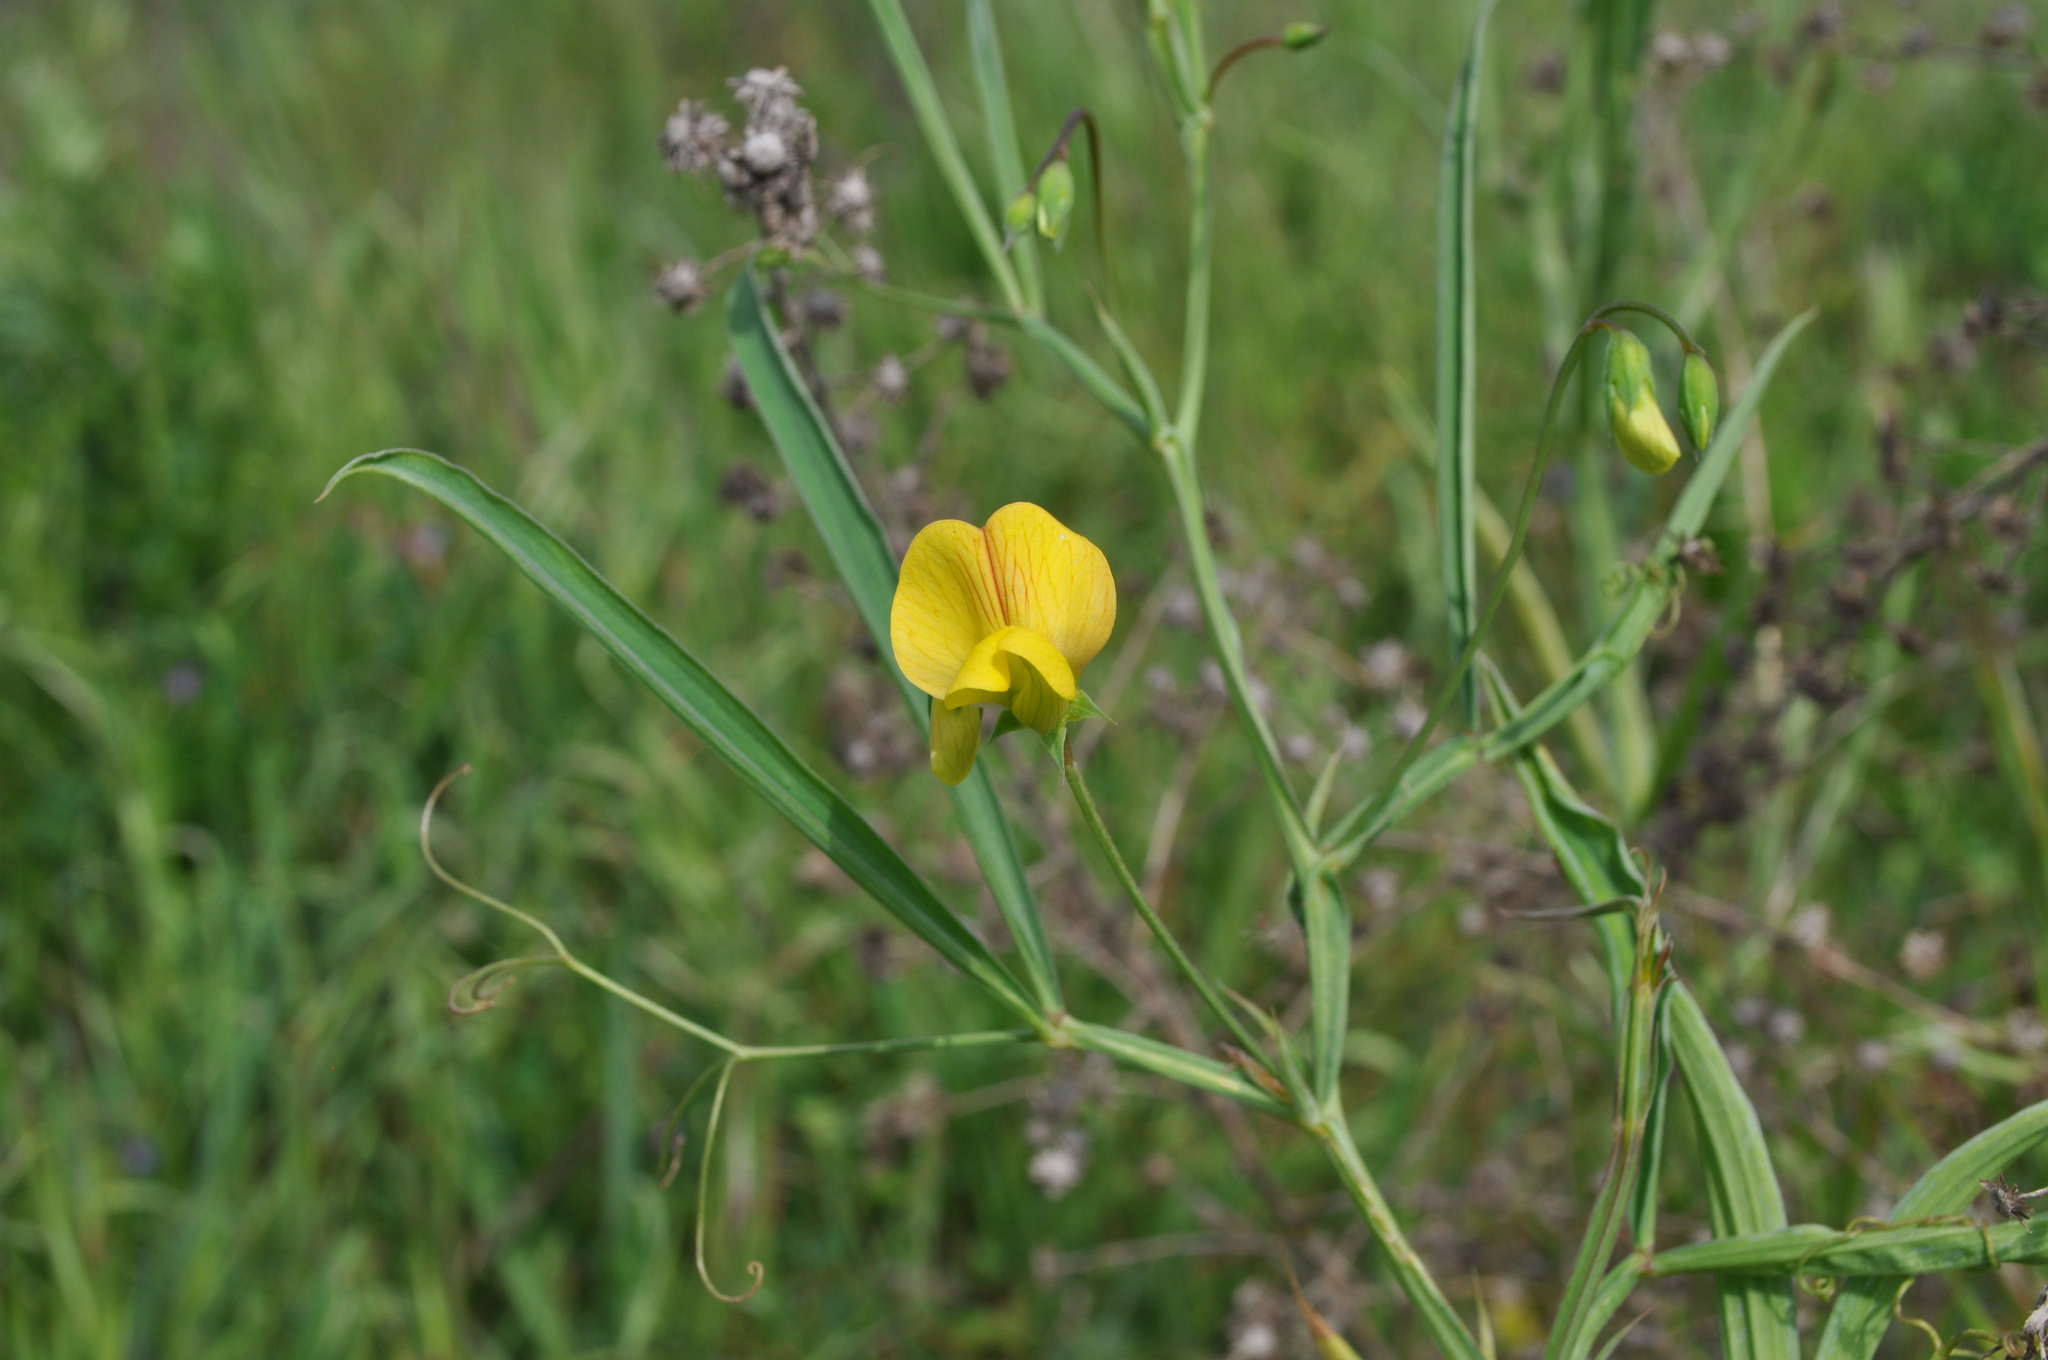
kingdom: Plantae
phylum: Tracheophyta
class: Magnoliopsida
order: Fabales
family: Fabaceae
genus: Lathyrus
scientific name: Lathyrus annuus
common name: Fodder pea
